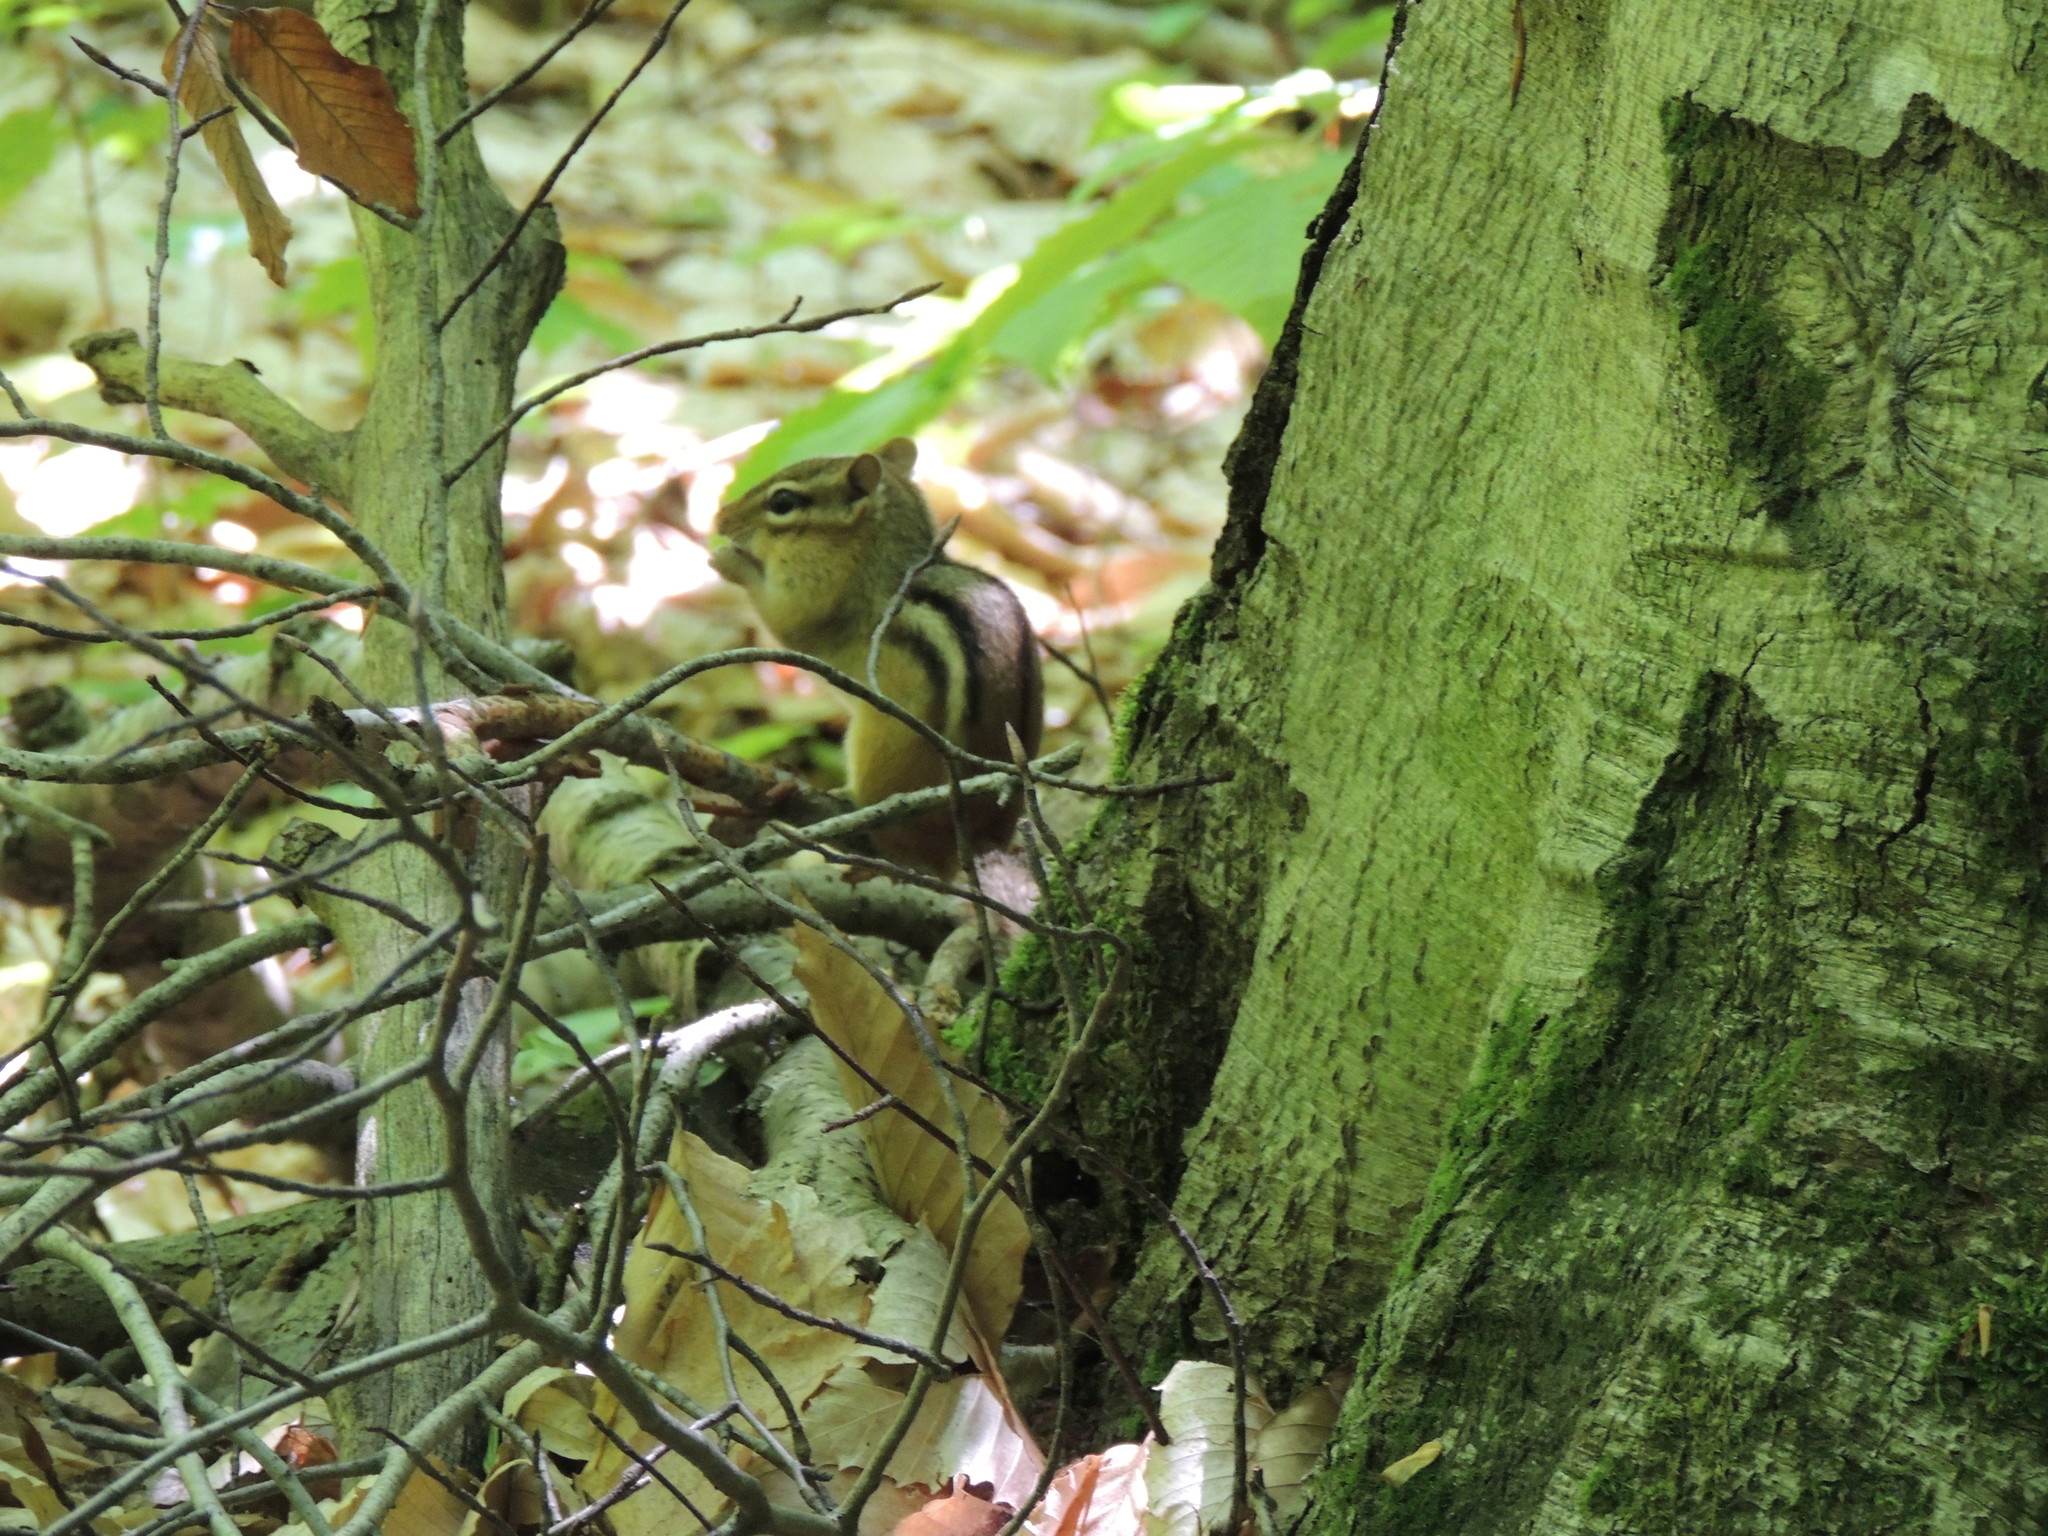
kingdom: Animalia
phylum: Chordata
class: Mammalia
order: Rodentia
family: Sciuridae
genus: Tamias
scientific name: Tamias striatus
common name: Eastern chipmunk
